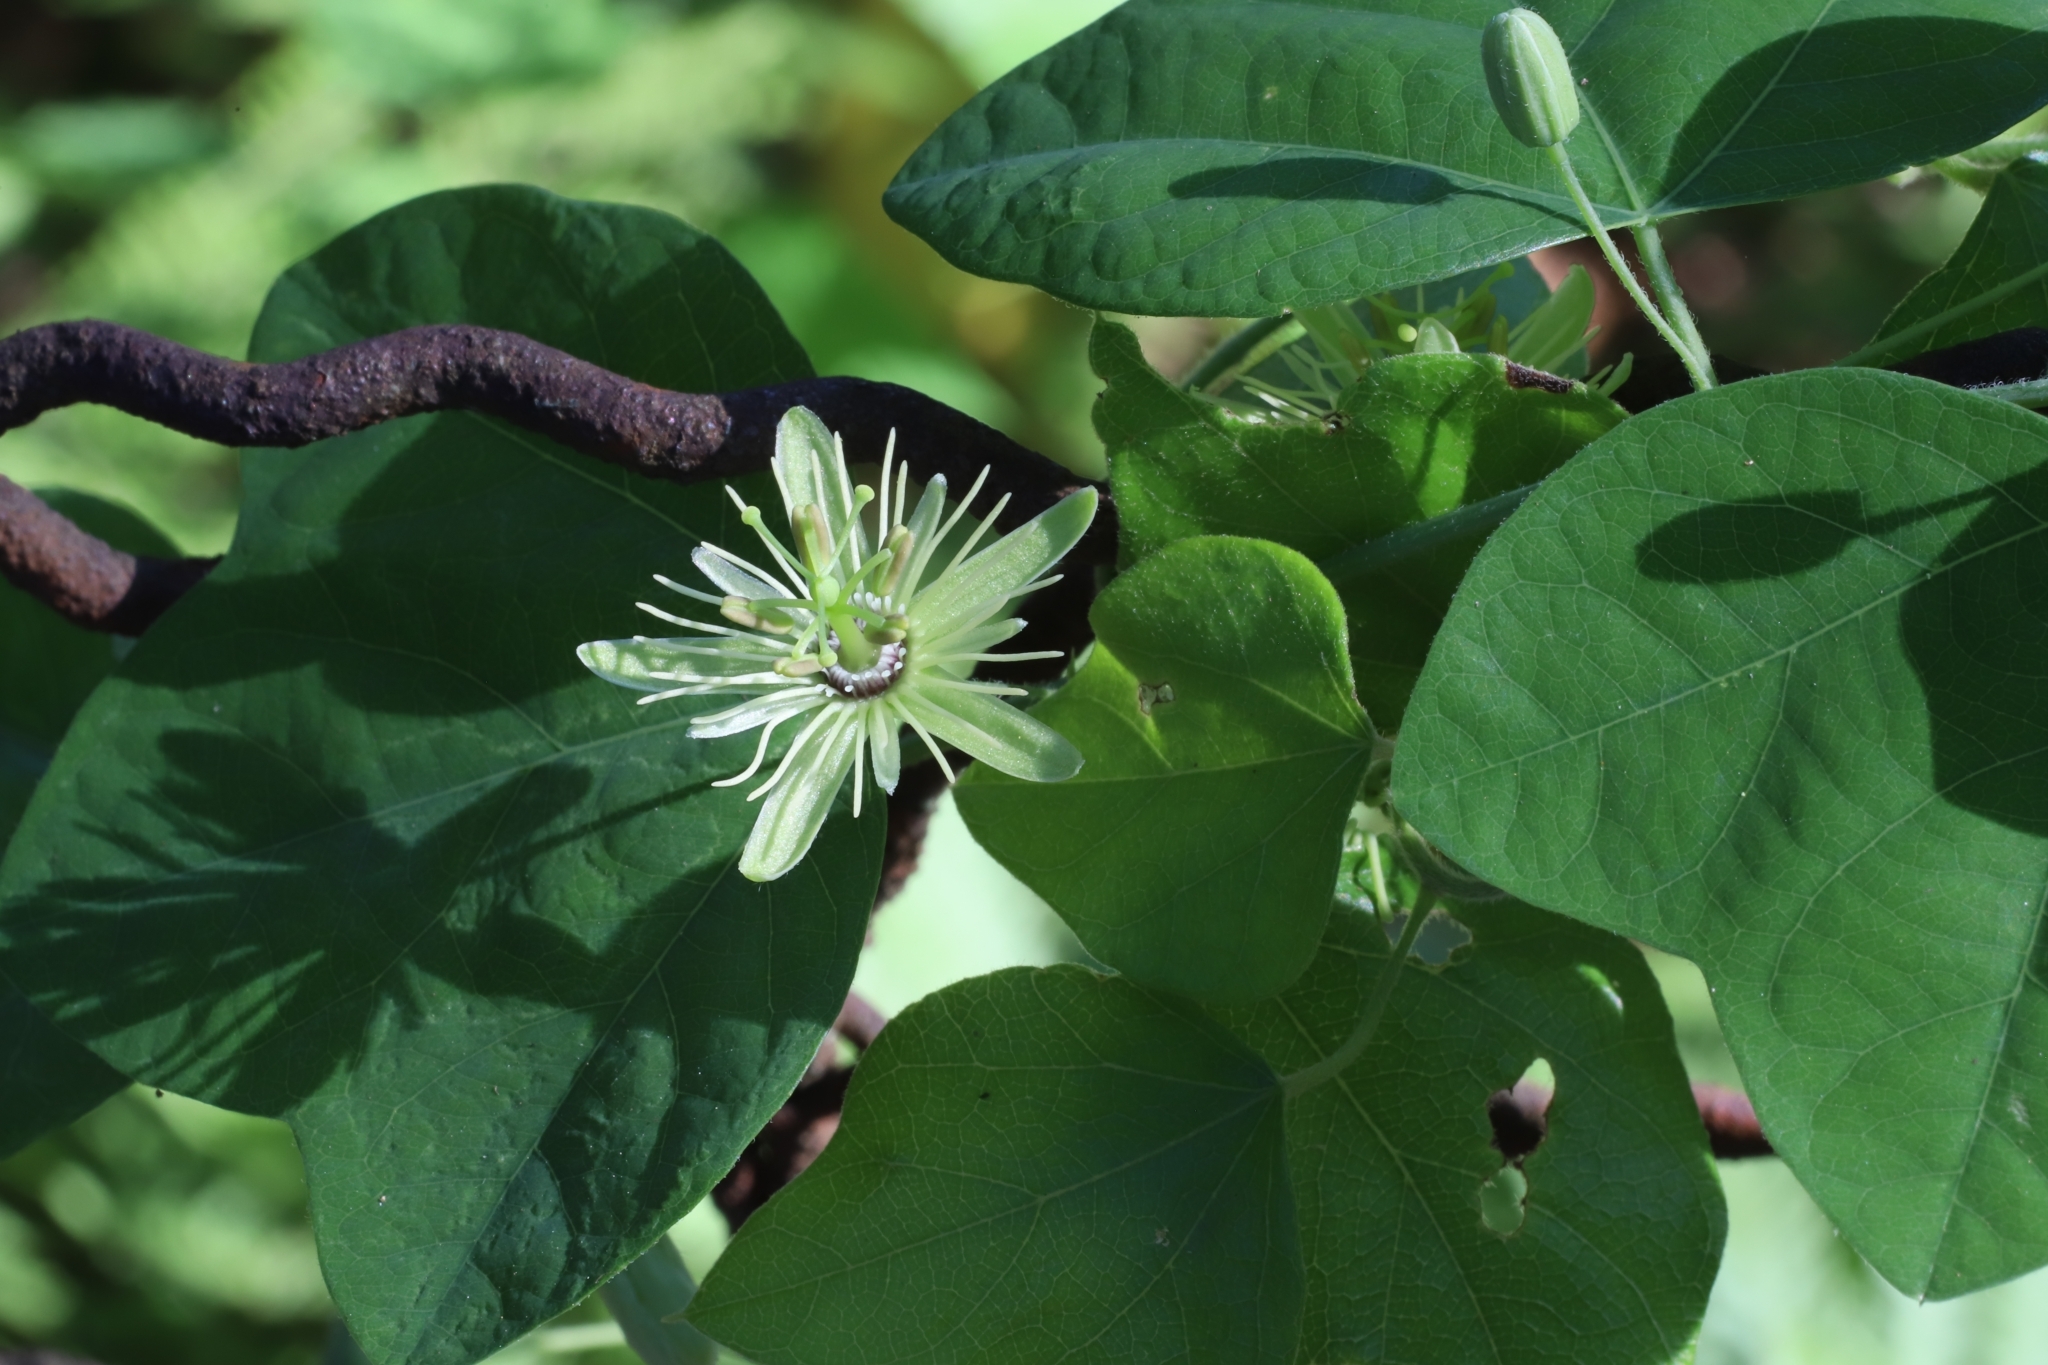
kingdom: Plantae
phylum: Tracheophyta
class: Magnoliopsida
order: Malpighiales
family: Passifloraceae
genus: Passiflora
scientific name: Passiflora lutea
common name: Yellow passionflower
